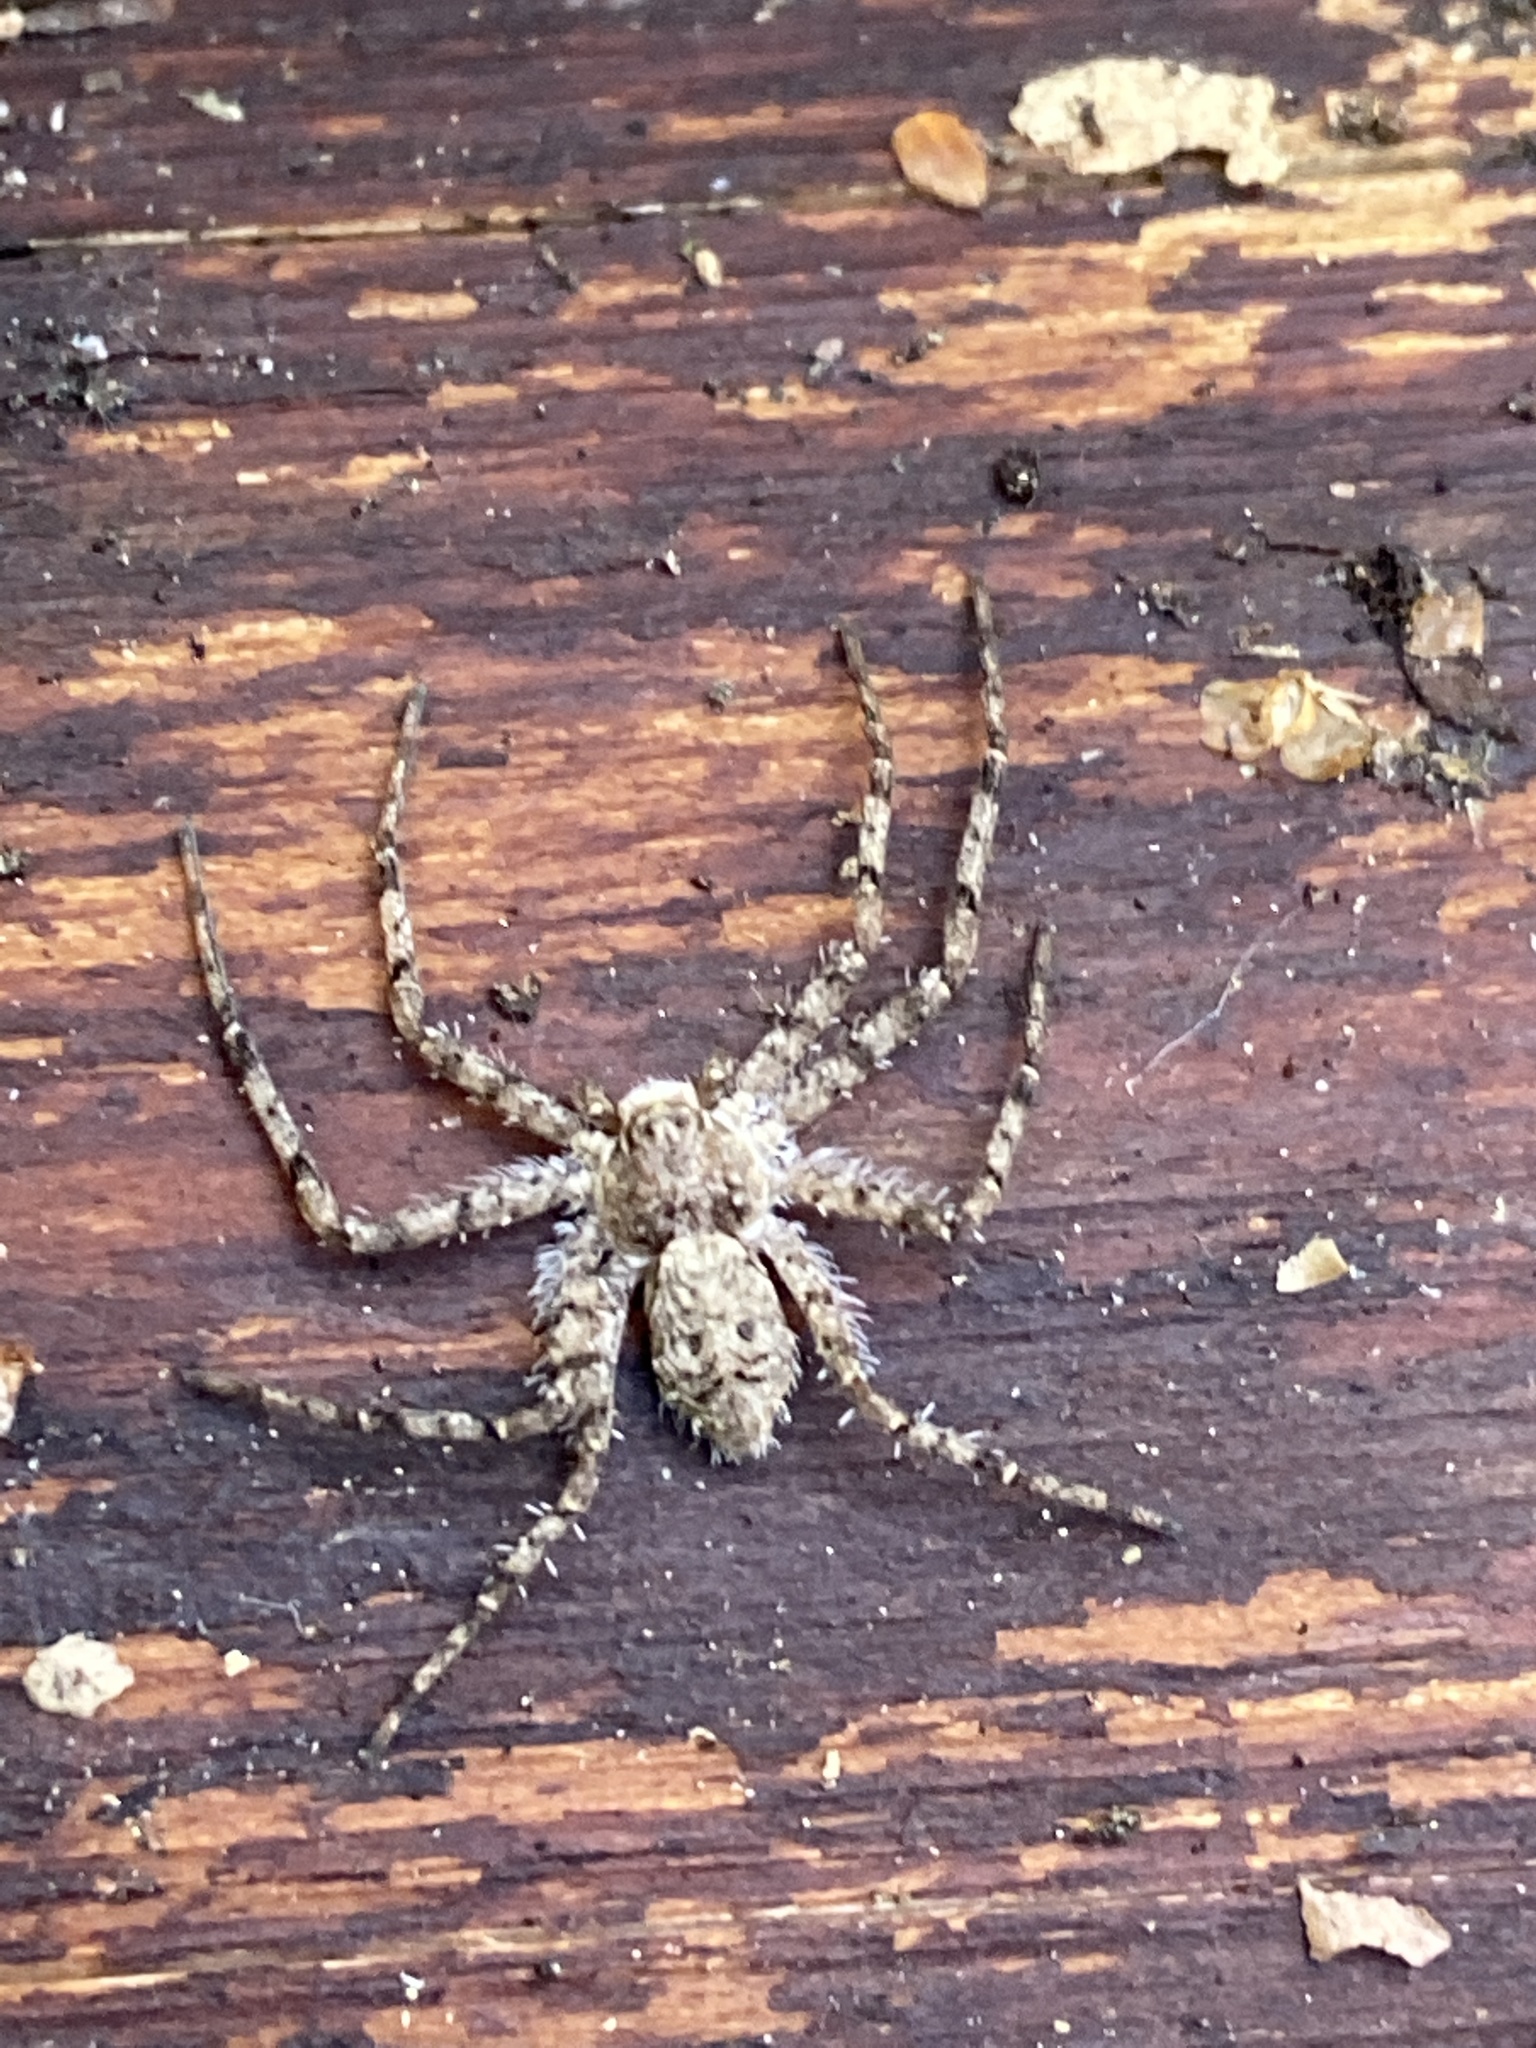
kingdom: Animalia
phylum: Arthropoda
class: Arachnida
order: Araneae
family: Philodromidae
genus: Philodromus
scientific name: Philodromus margaritatus
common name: Lichen running-spider
